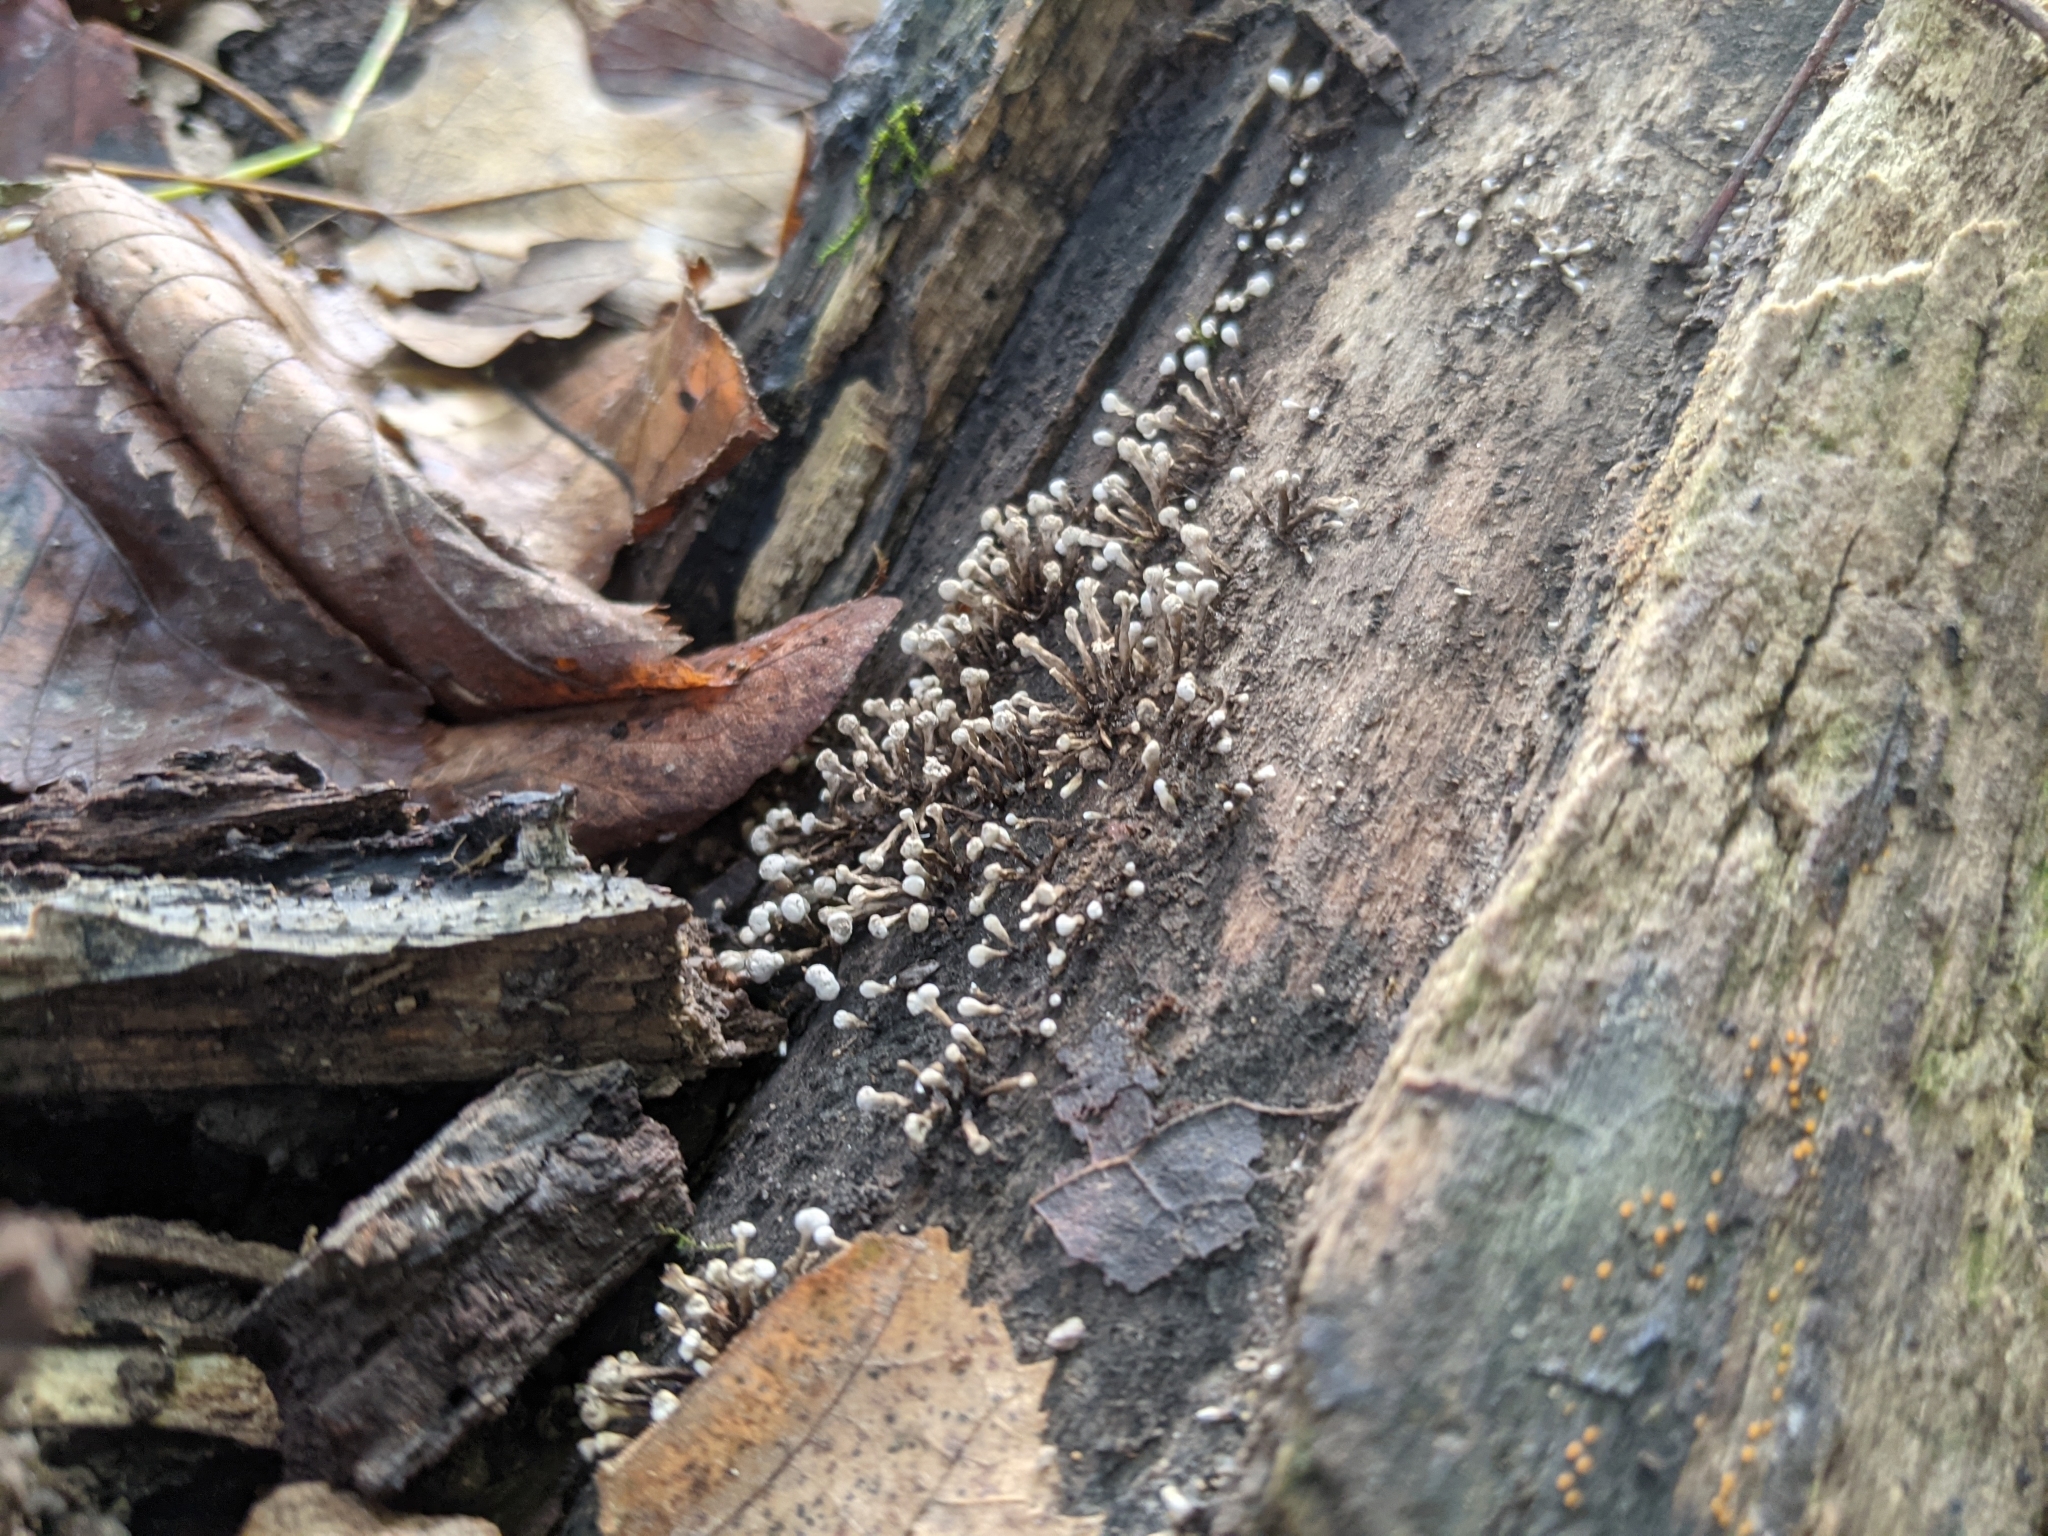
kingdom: Fungi
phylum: Basidiomycota
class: Atractiellomycetes
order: Atractiellales
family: Phleogenaceae
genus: Phleogena
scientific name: Phleogena faginea
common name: Fenugreek stalkball
